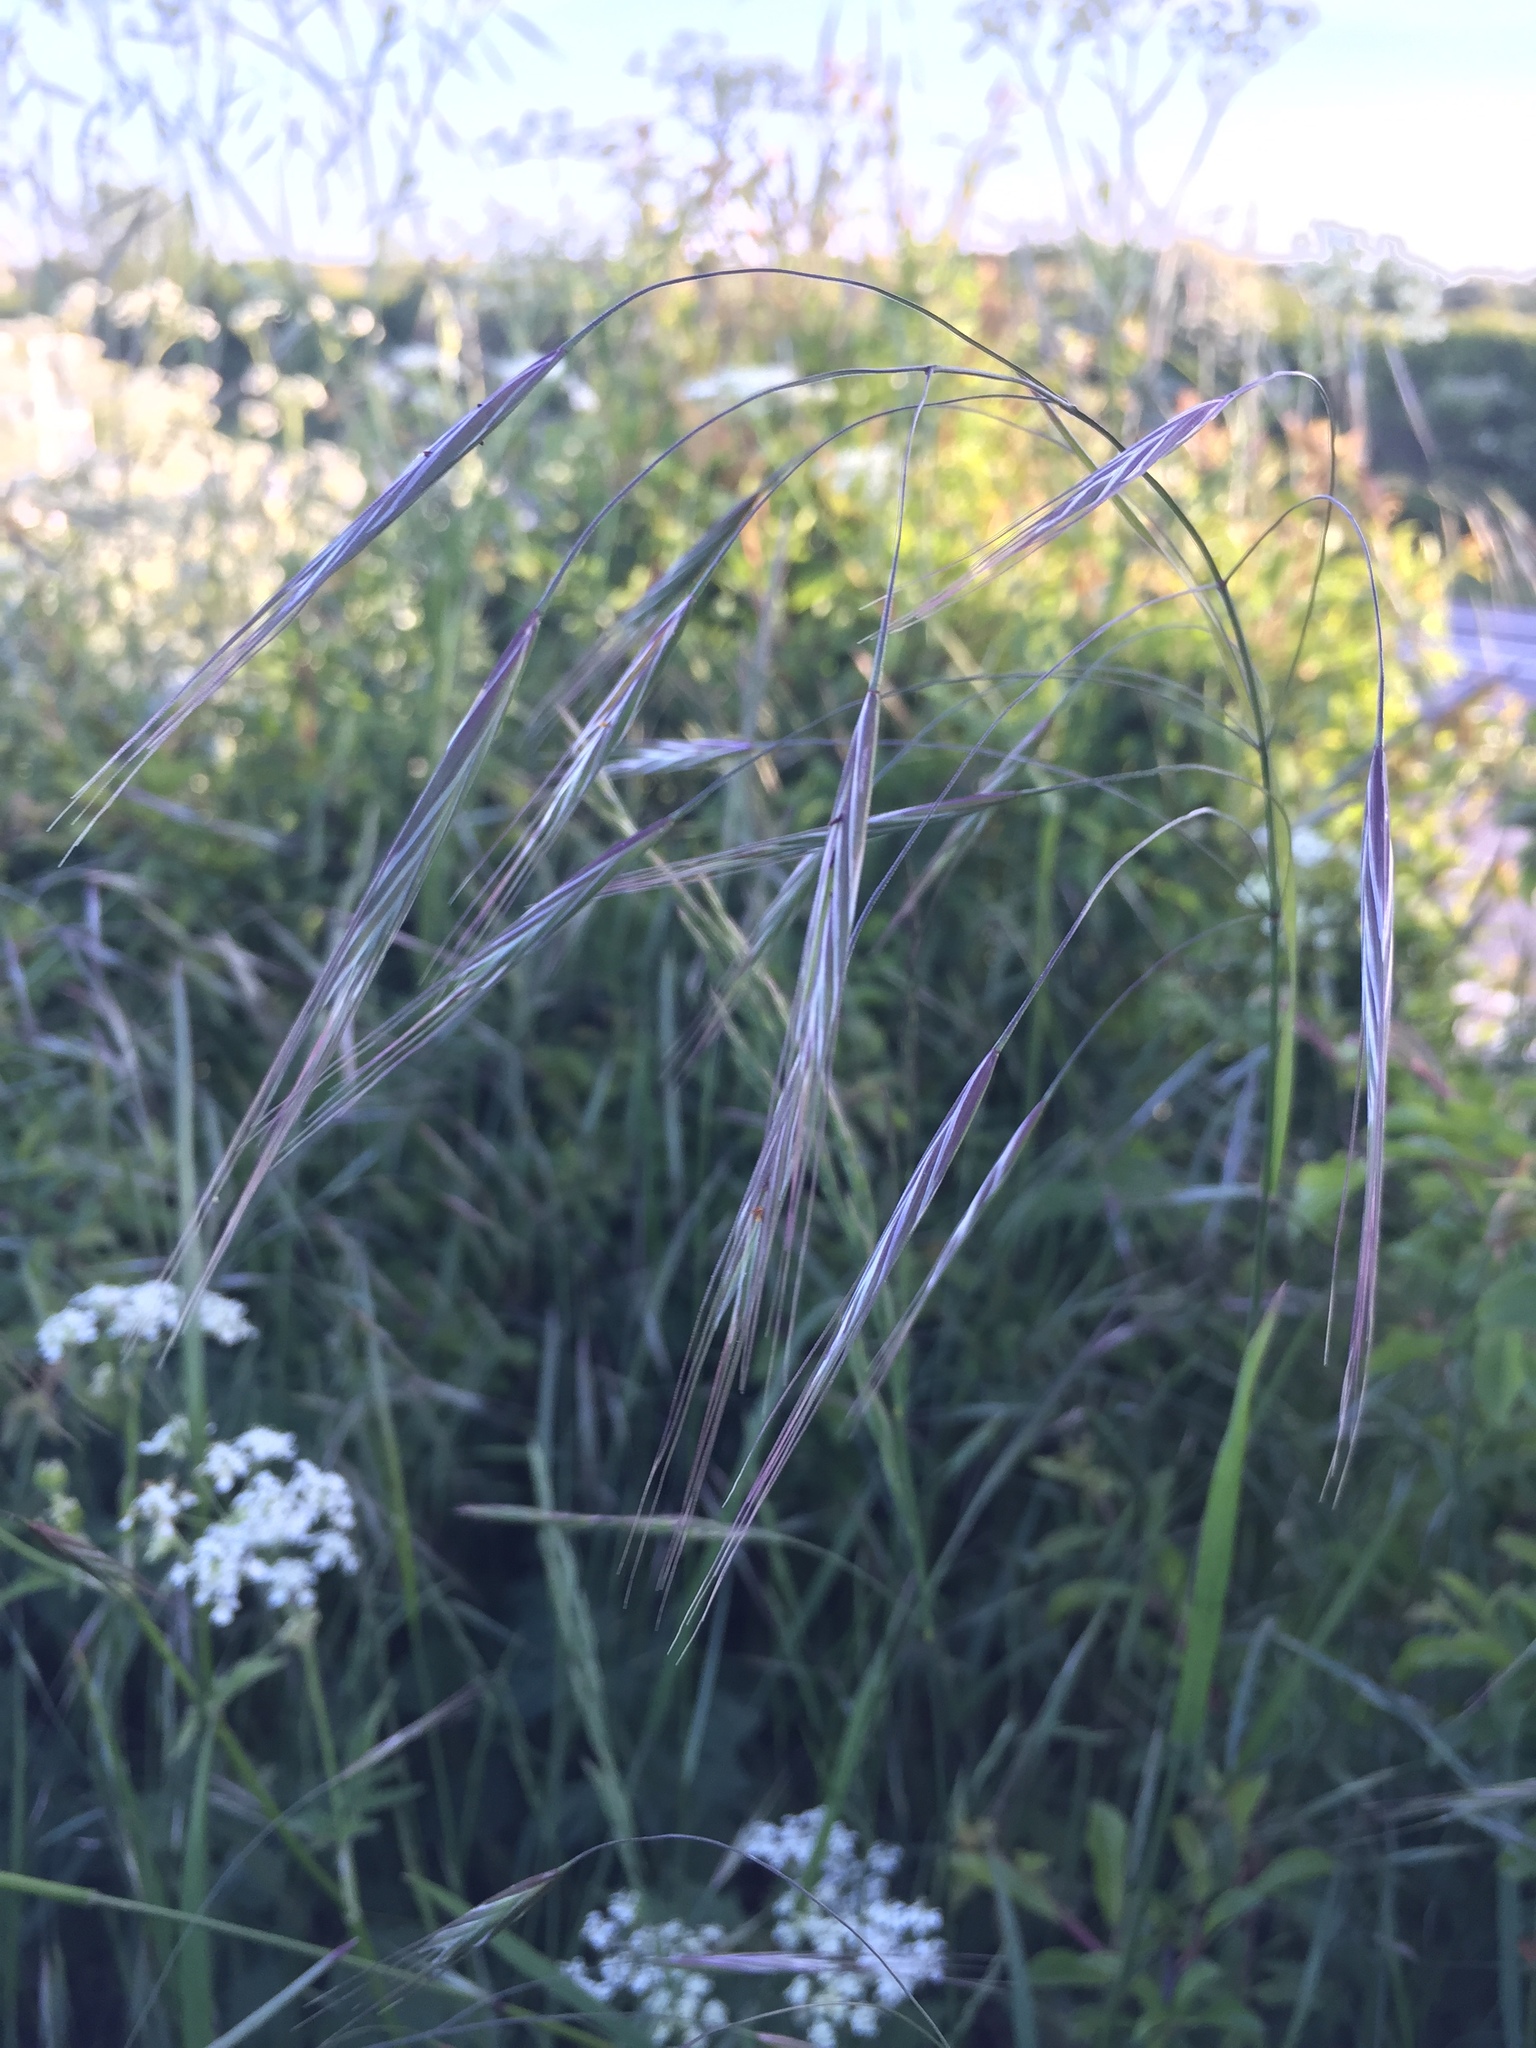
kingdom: Plantae
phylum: Tracheophyta
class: Liliopsida
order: Poales
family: Poaceae
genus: Bromus
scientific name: Bromus sterilis
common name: Poverty brome
